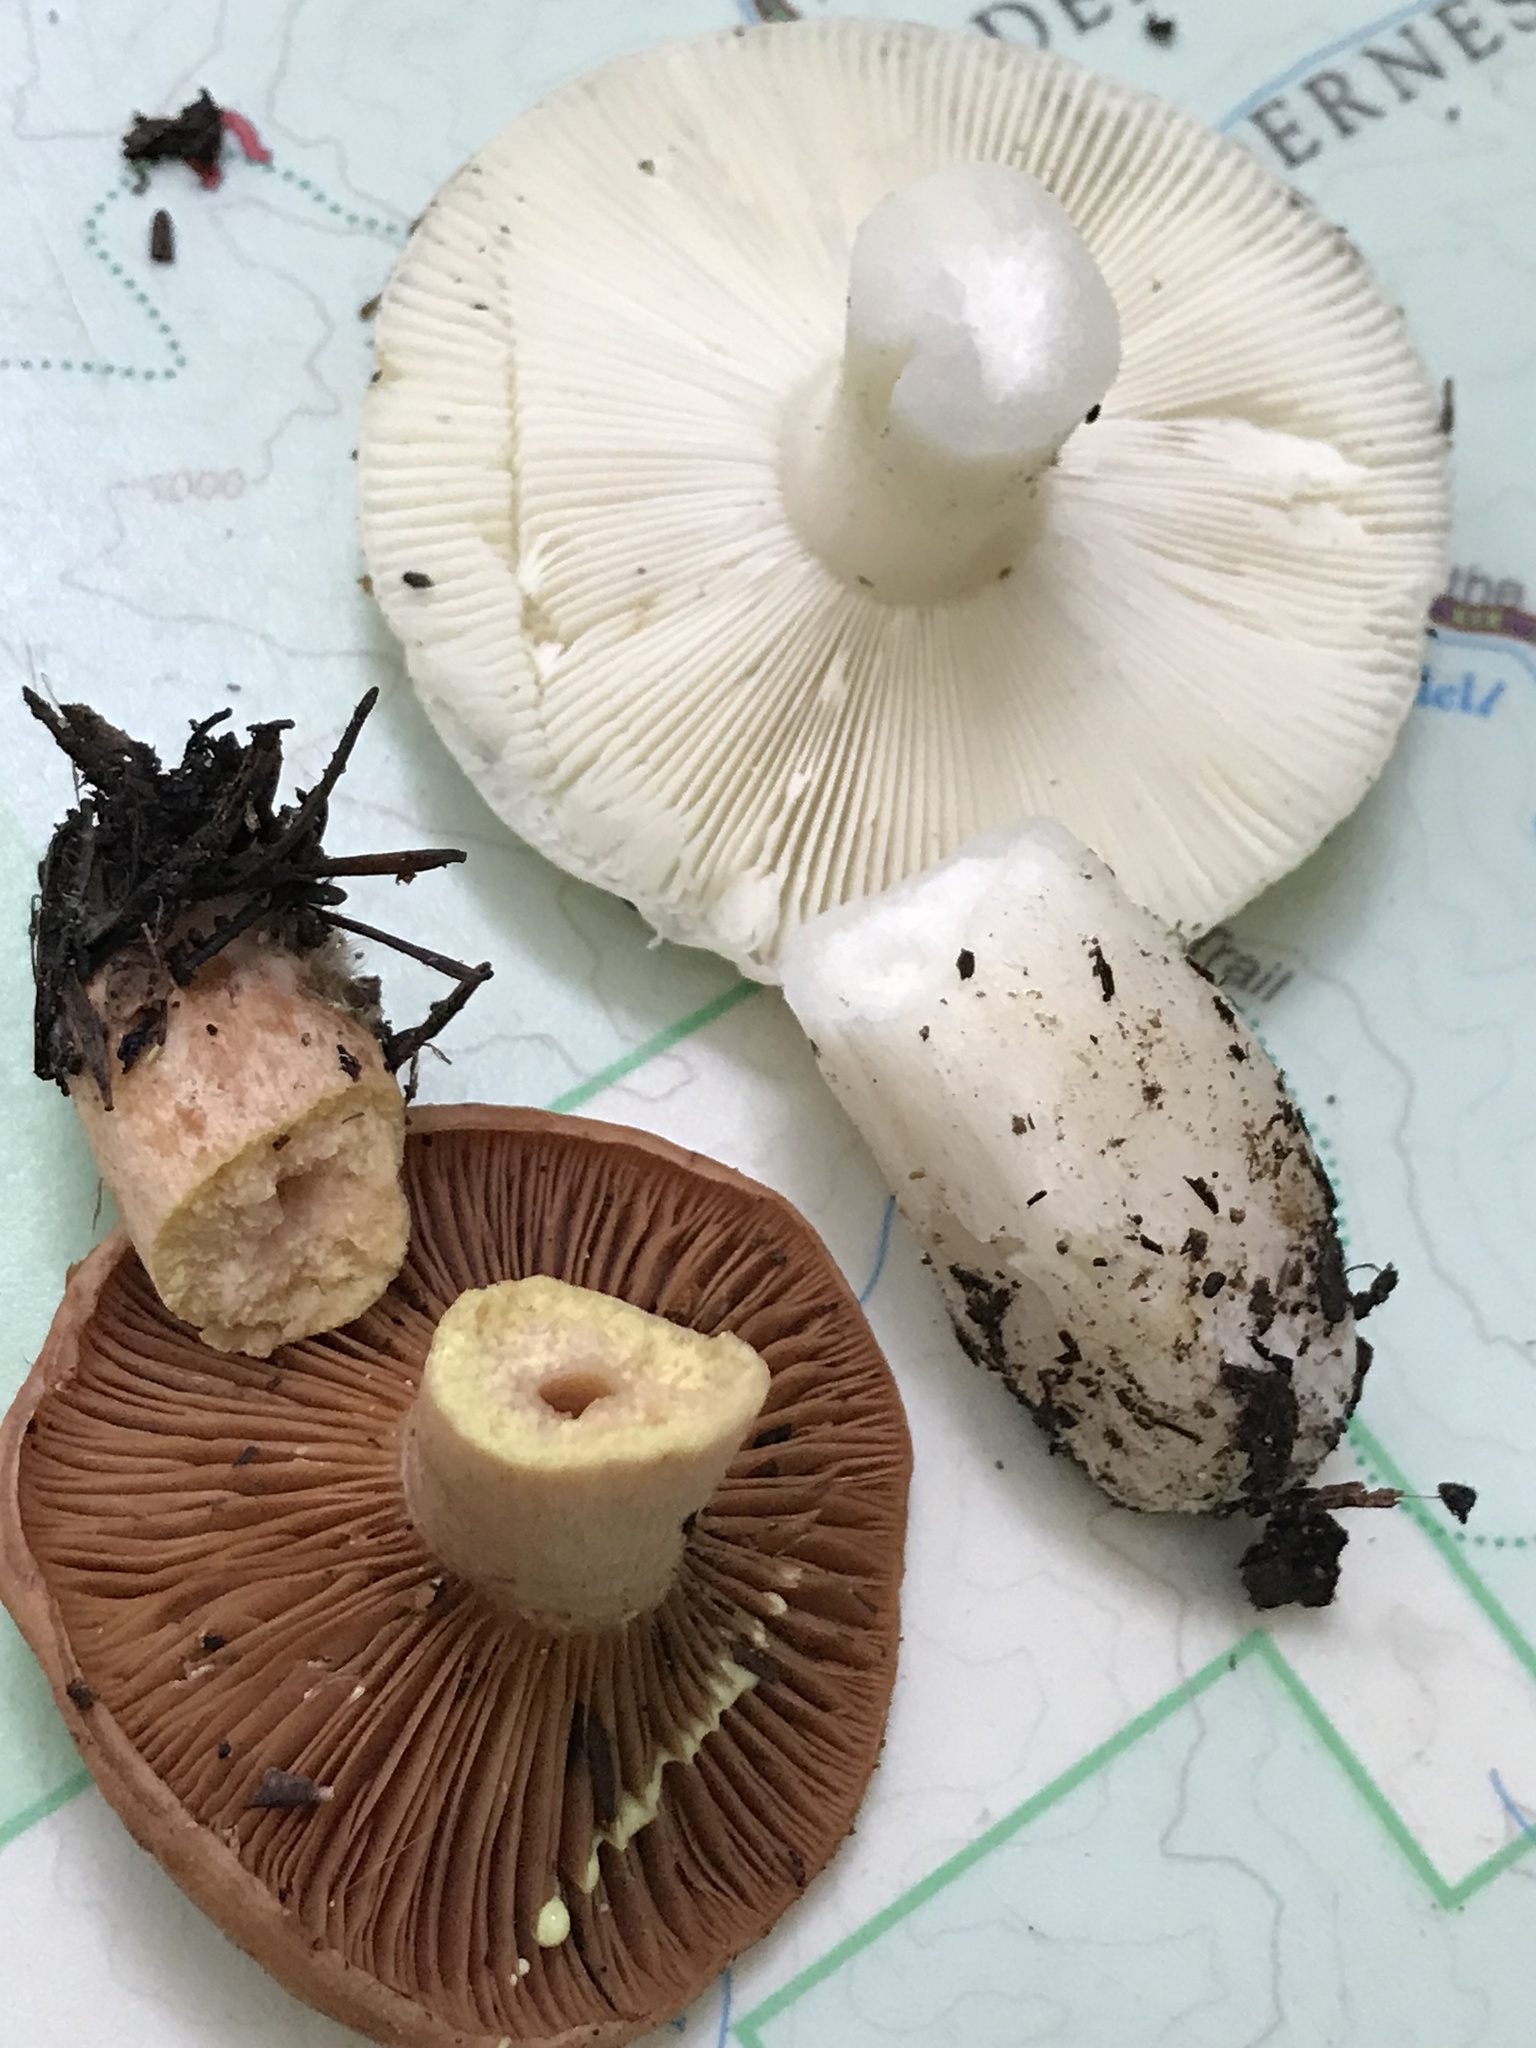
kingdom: Fungi
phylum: Basidiomycota
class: Agaricomycetes
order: Russulales
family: Russulaceae
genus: Lactarius
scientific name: Lactarius xanthogalactus
